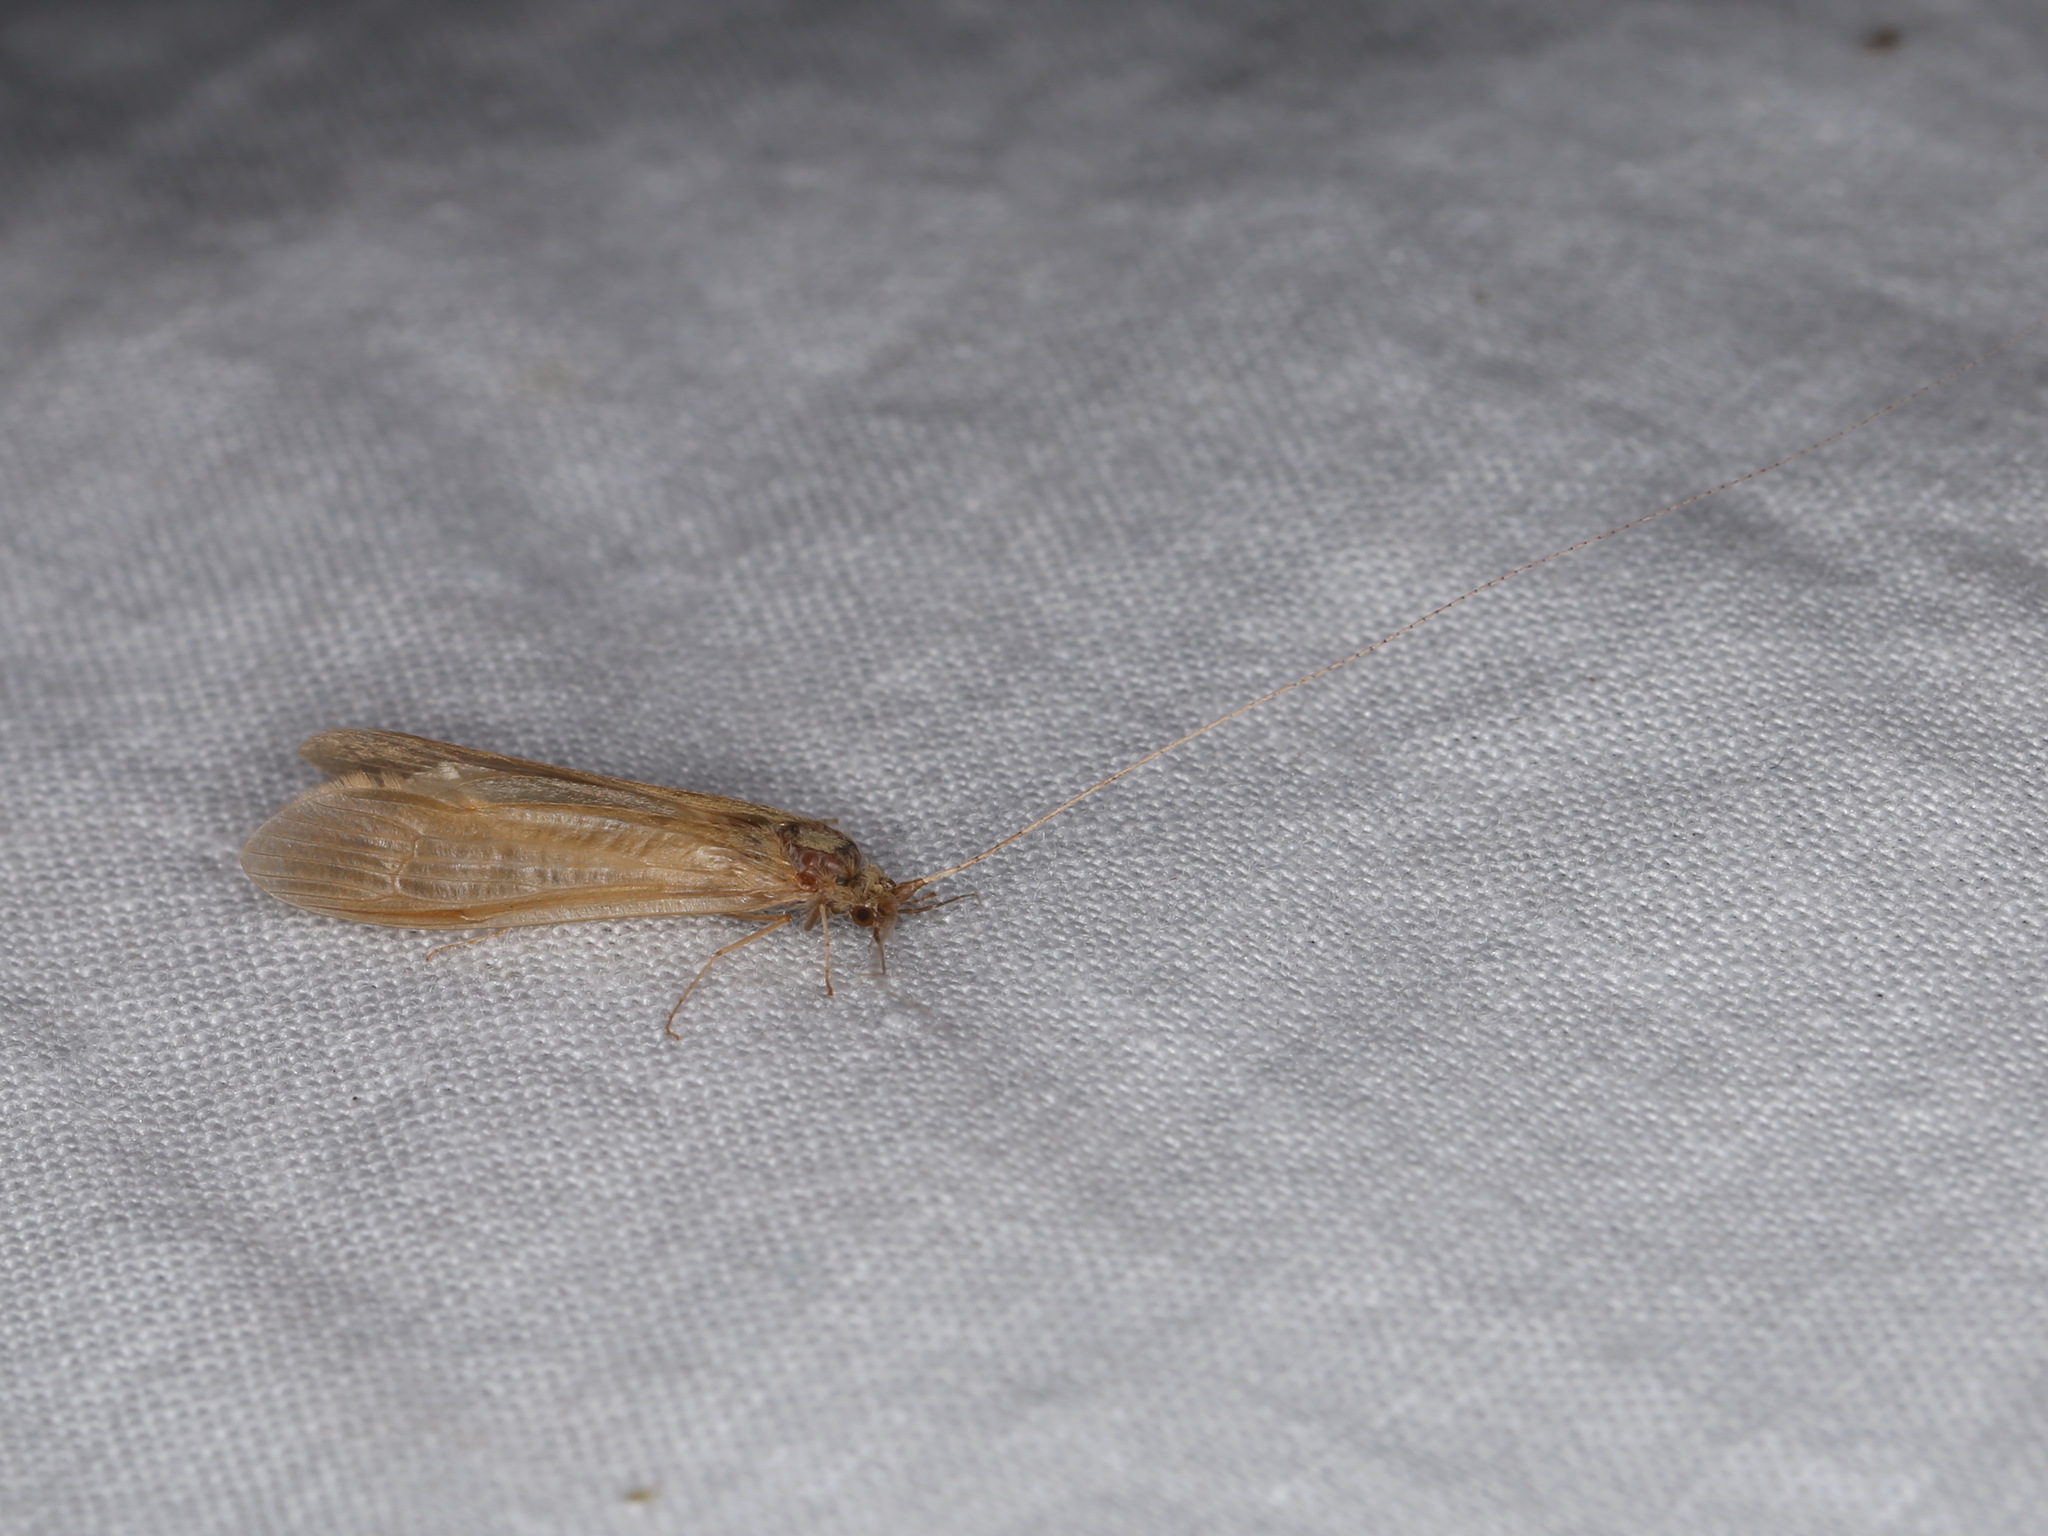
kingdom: Animalia
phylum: Arthropoda
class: Insecta
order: Trichoptera
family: Leptoceridae
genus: Oecetis
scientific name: Oecetis ochracea
